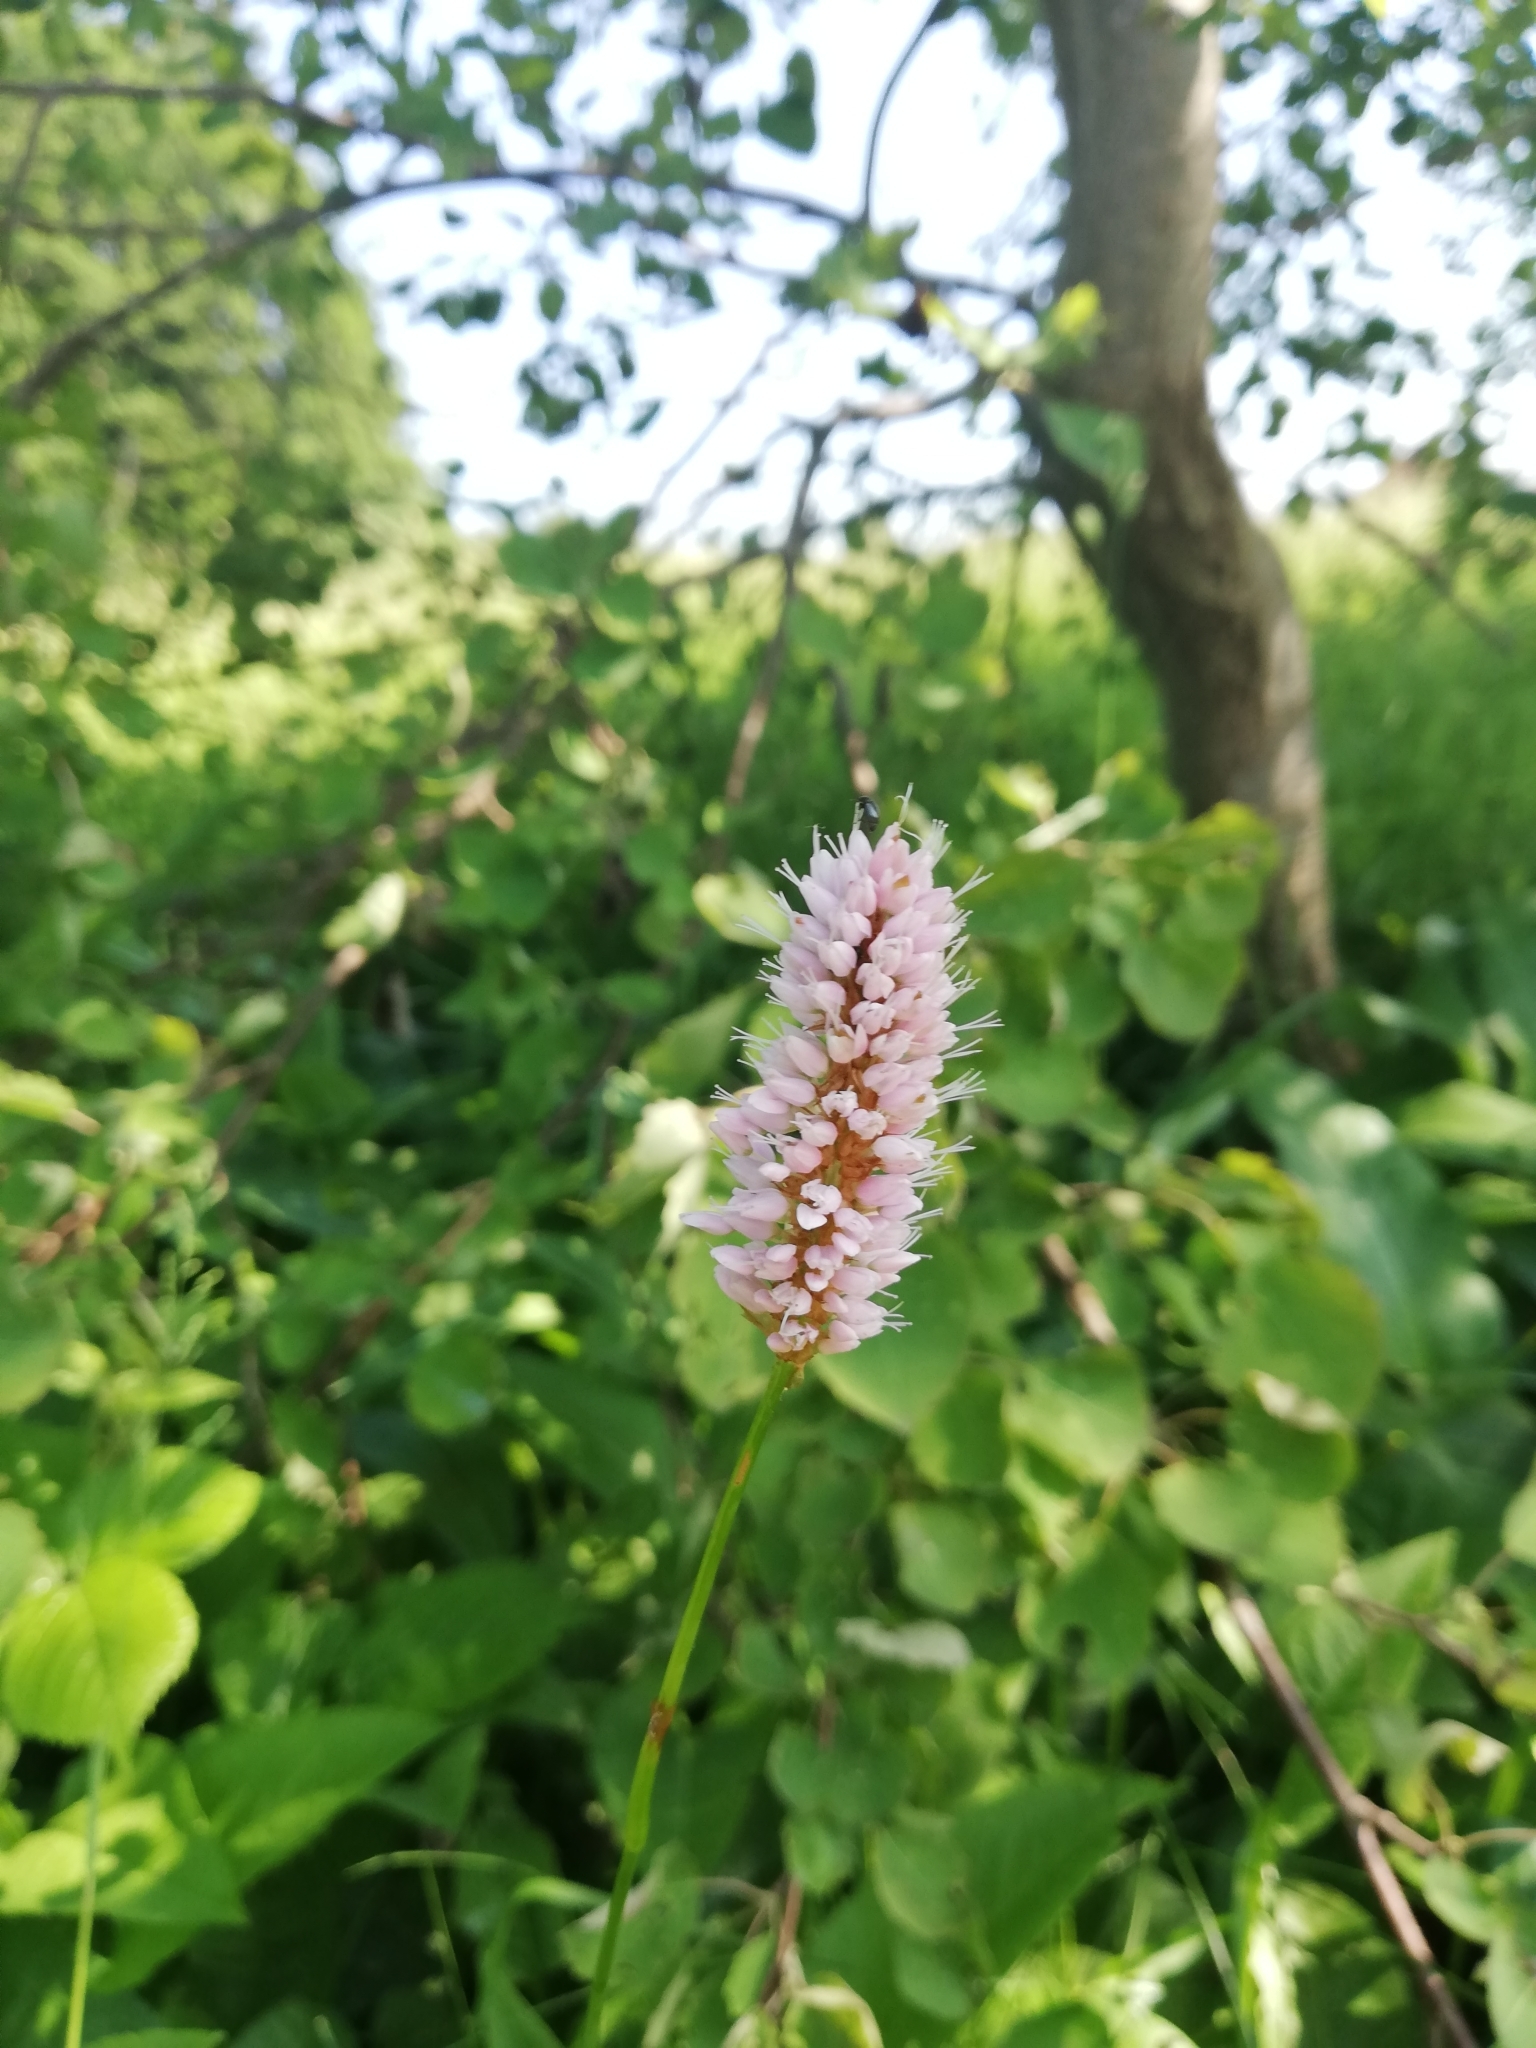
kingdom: Plantae
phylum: Tracheophyta
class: Magnoliopsida
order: Caryophyllales
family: Polygonaceae
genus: Bistorta
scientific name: Bistorta officinalis
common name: Common bistort
